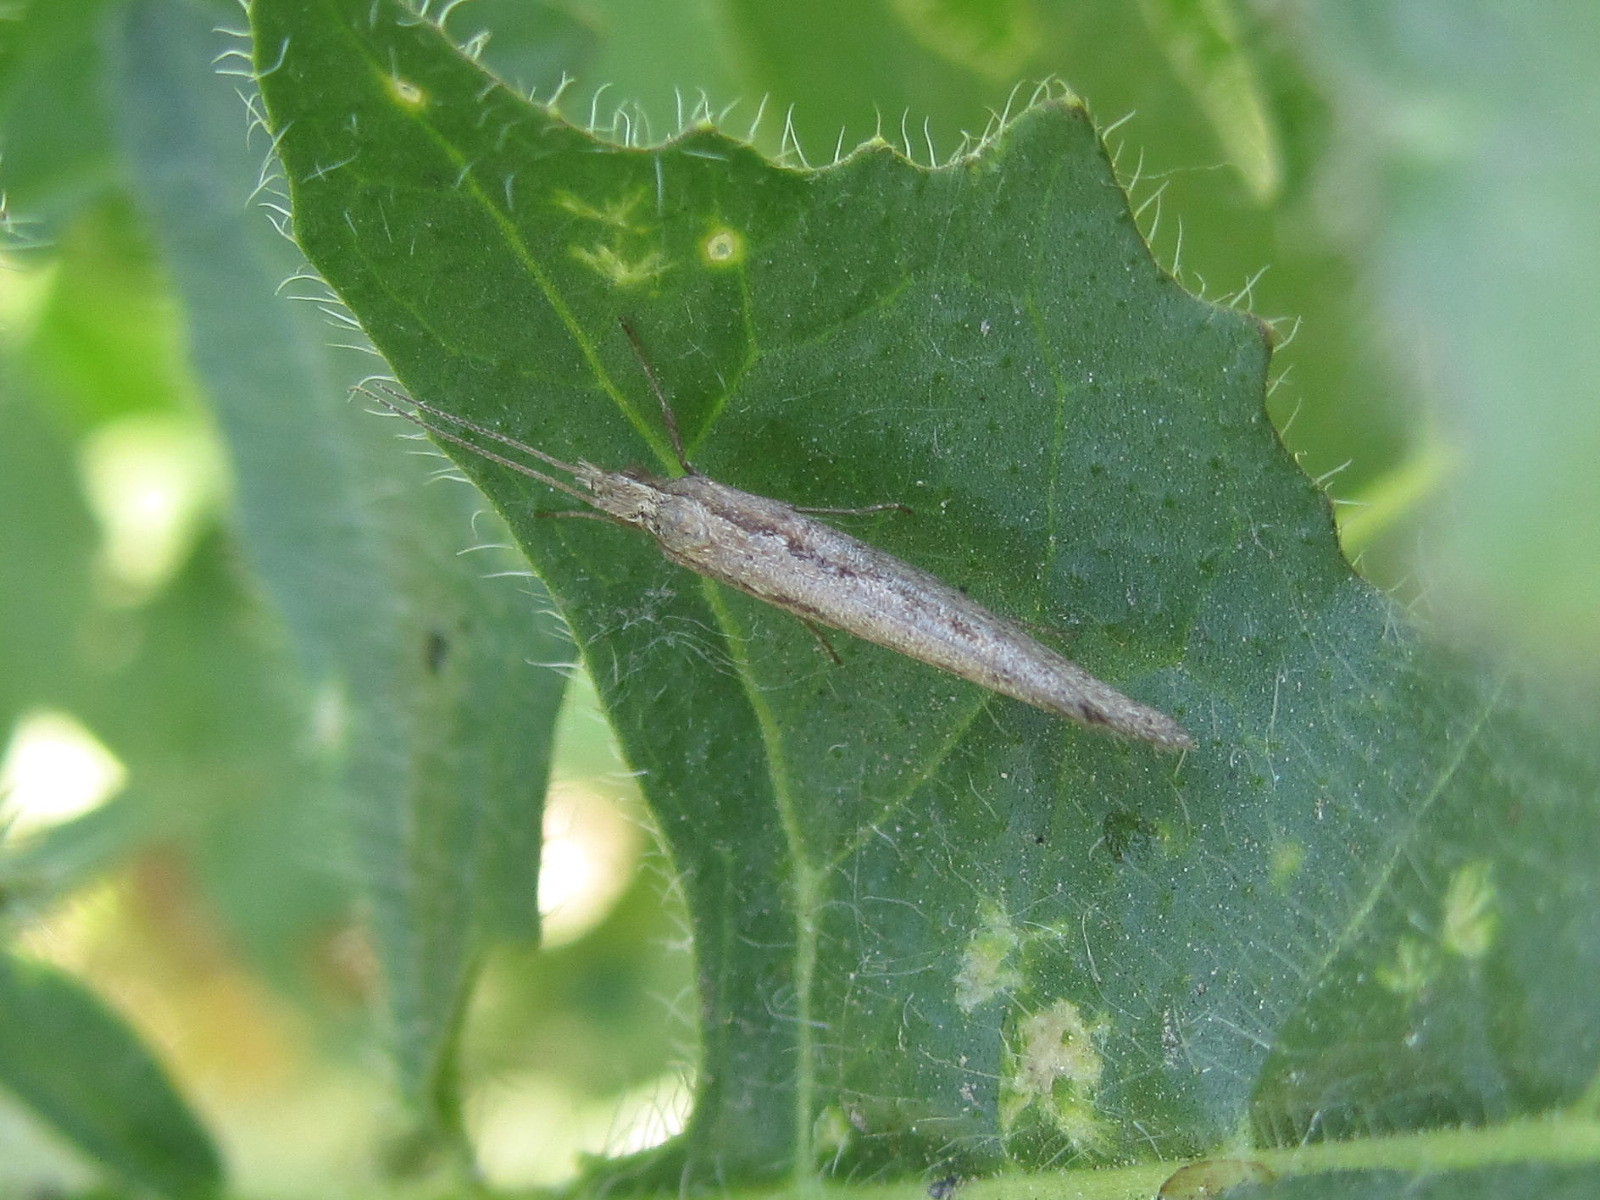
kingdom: Animalia
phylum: Arthropoda
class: Insecta
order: Lepidoptera
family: Plutellidae
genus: Plutella
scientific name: Plutella xylostella
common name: Diamond-back moth
